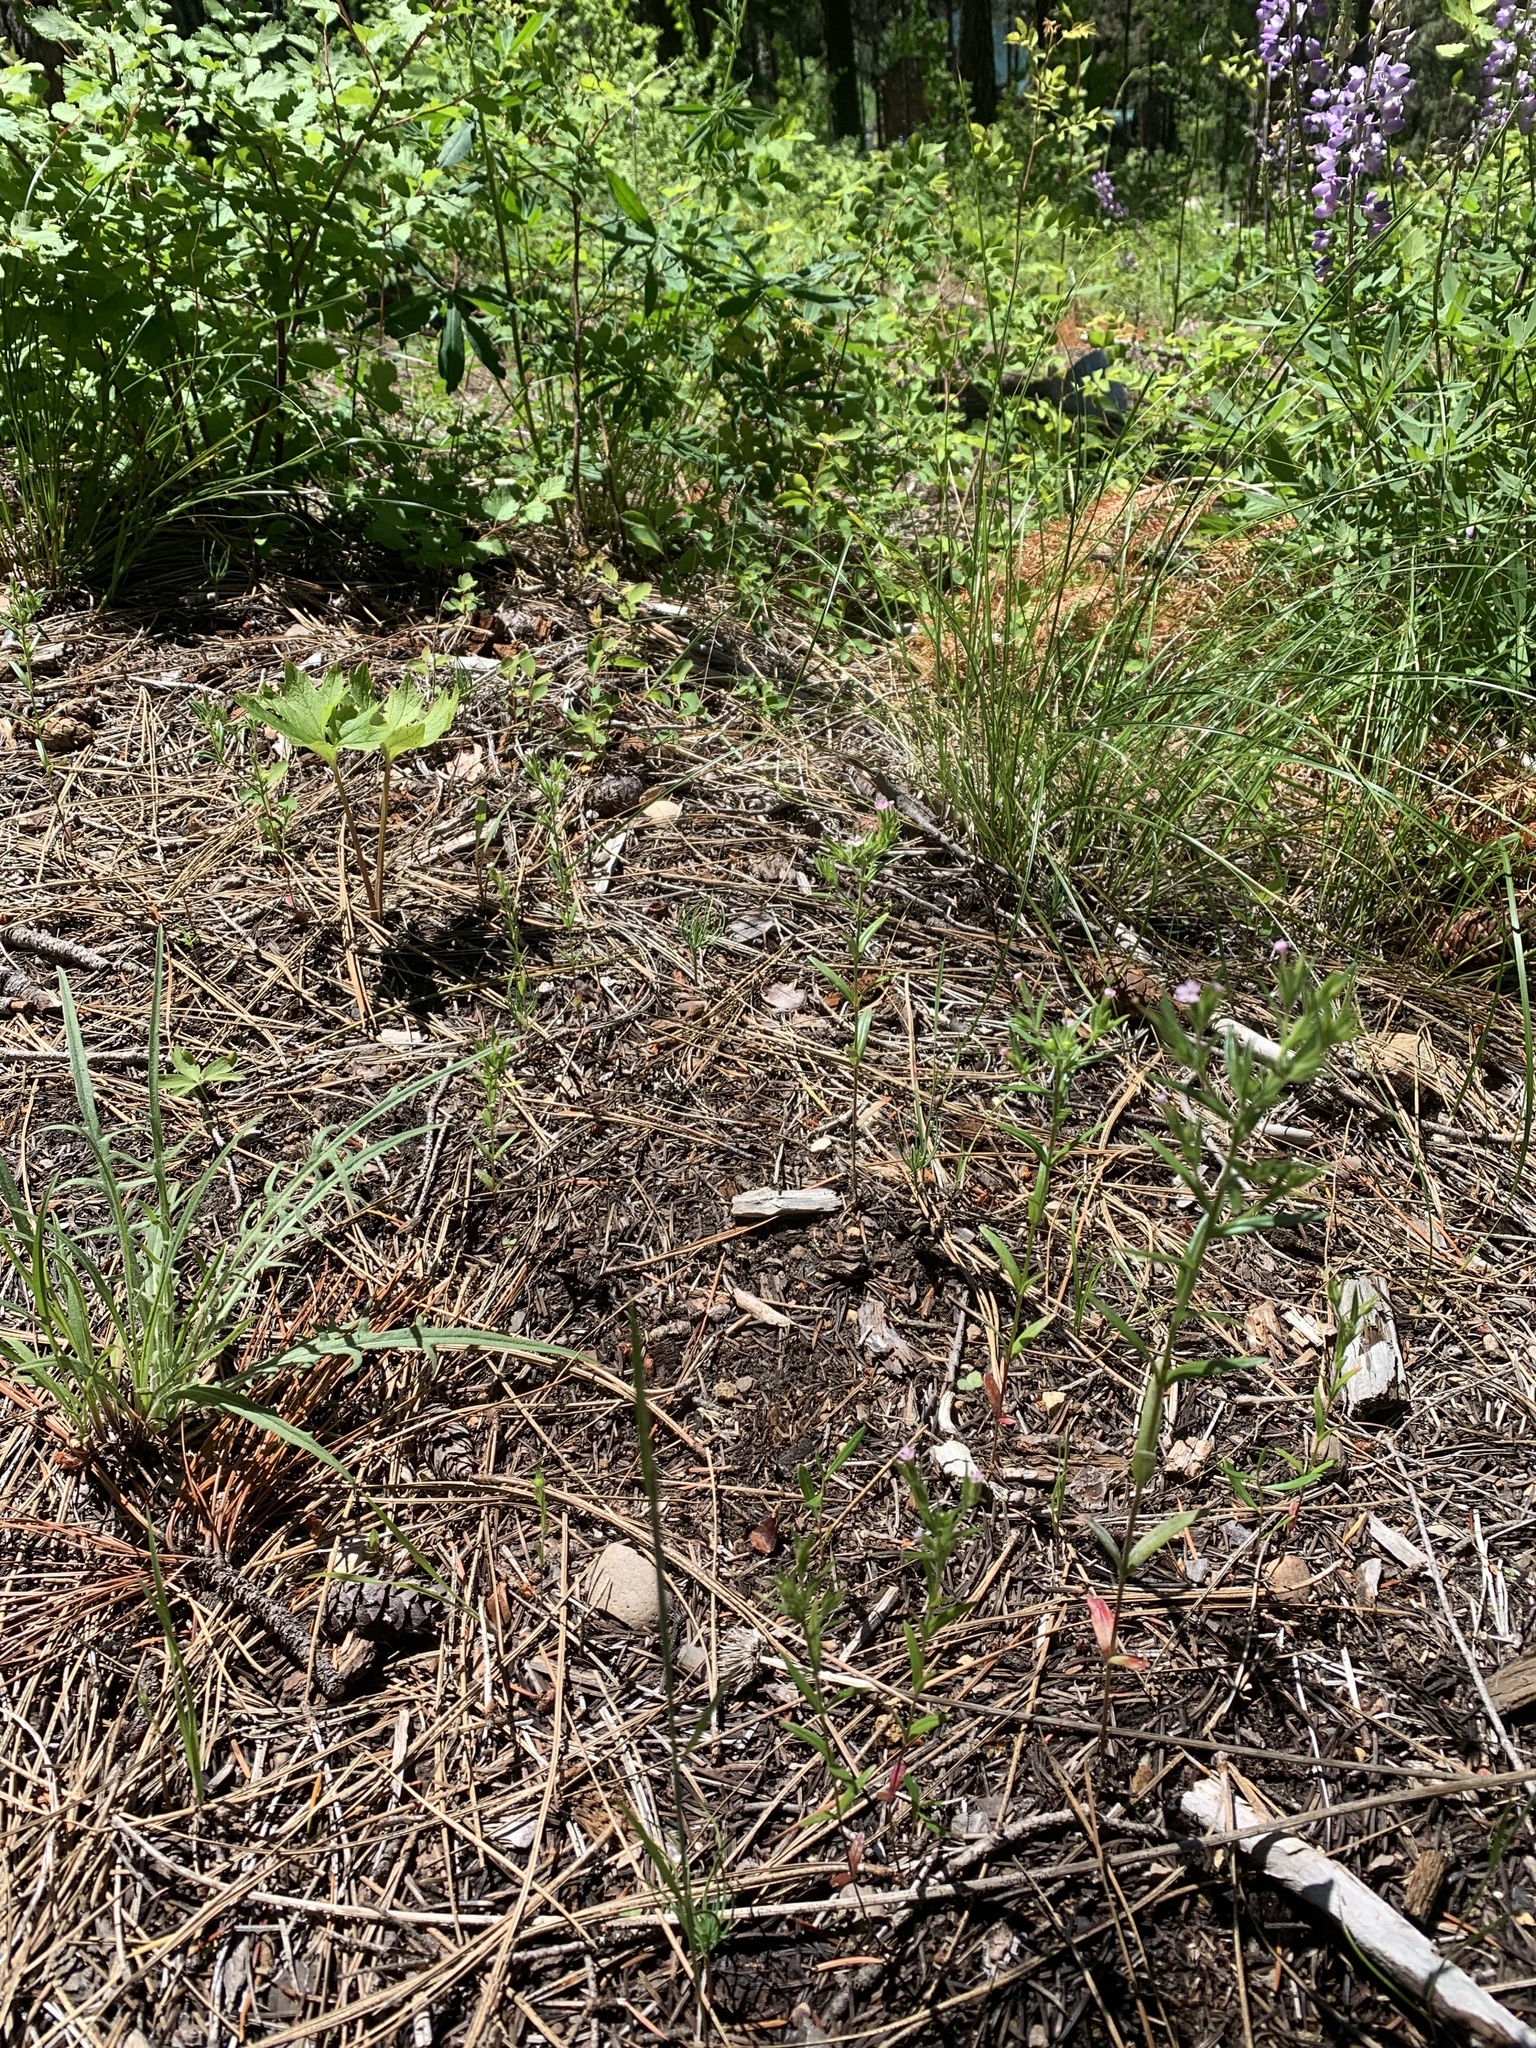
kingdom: Plantae
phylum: Tracheophyta
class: Magnoliopsida
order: Ericales
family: Polemoniaceae
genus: Phlox
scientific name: Phlox gracilis
